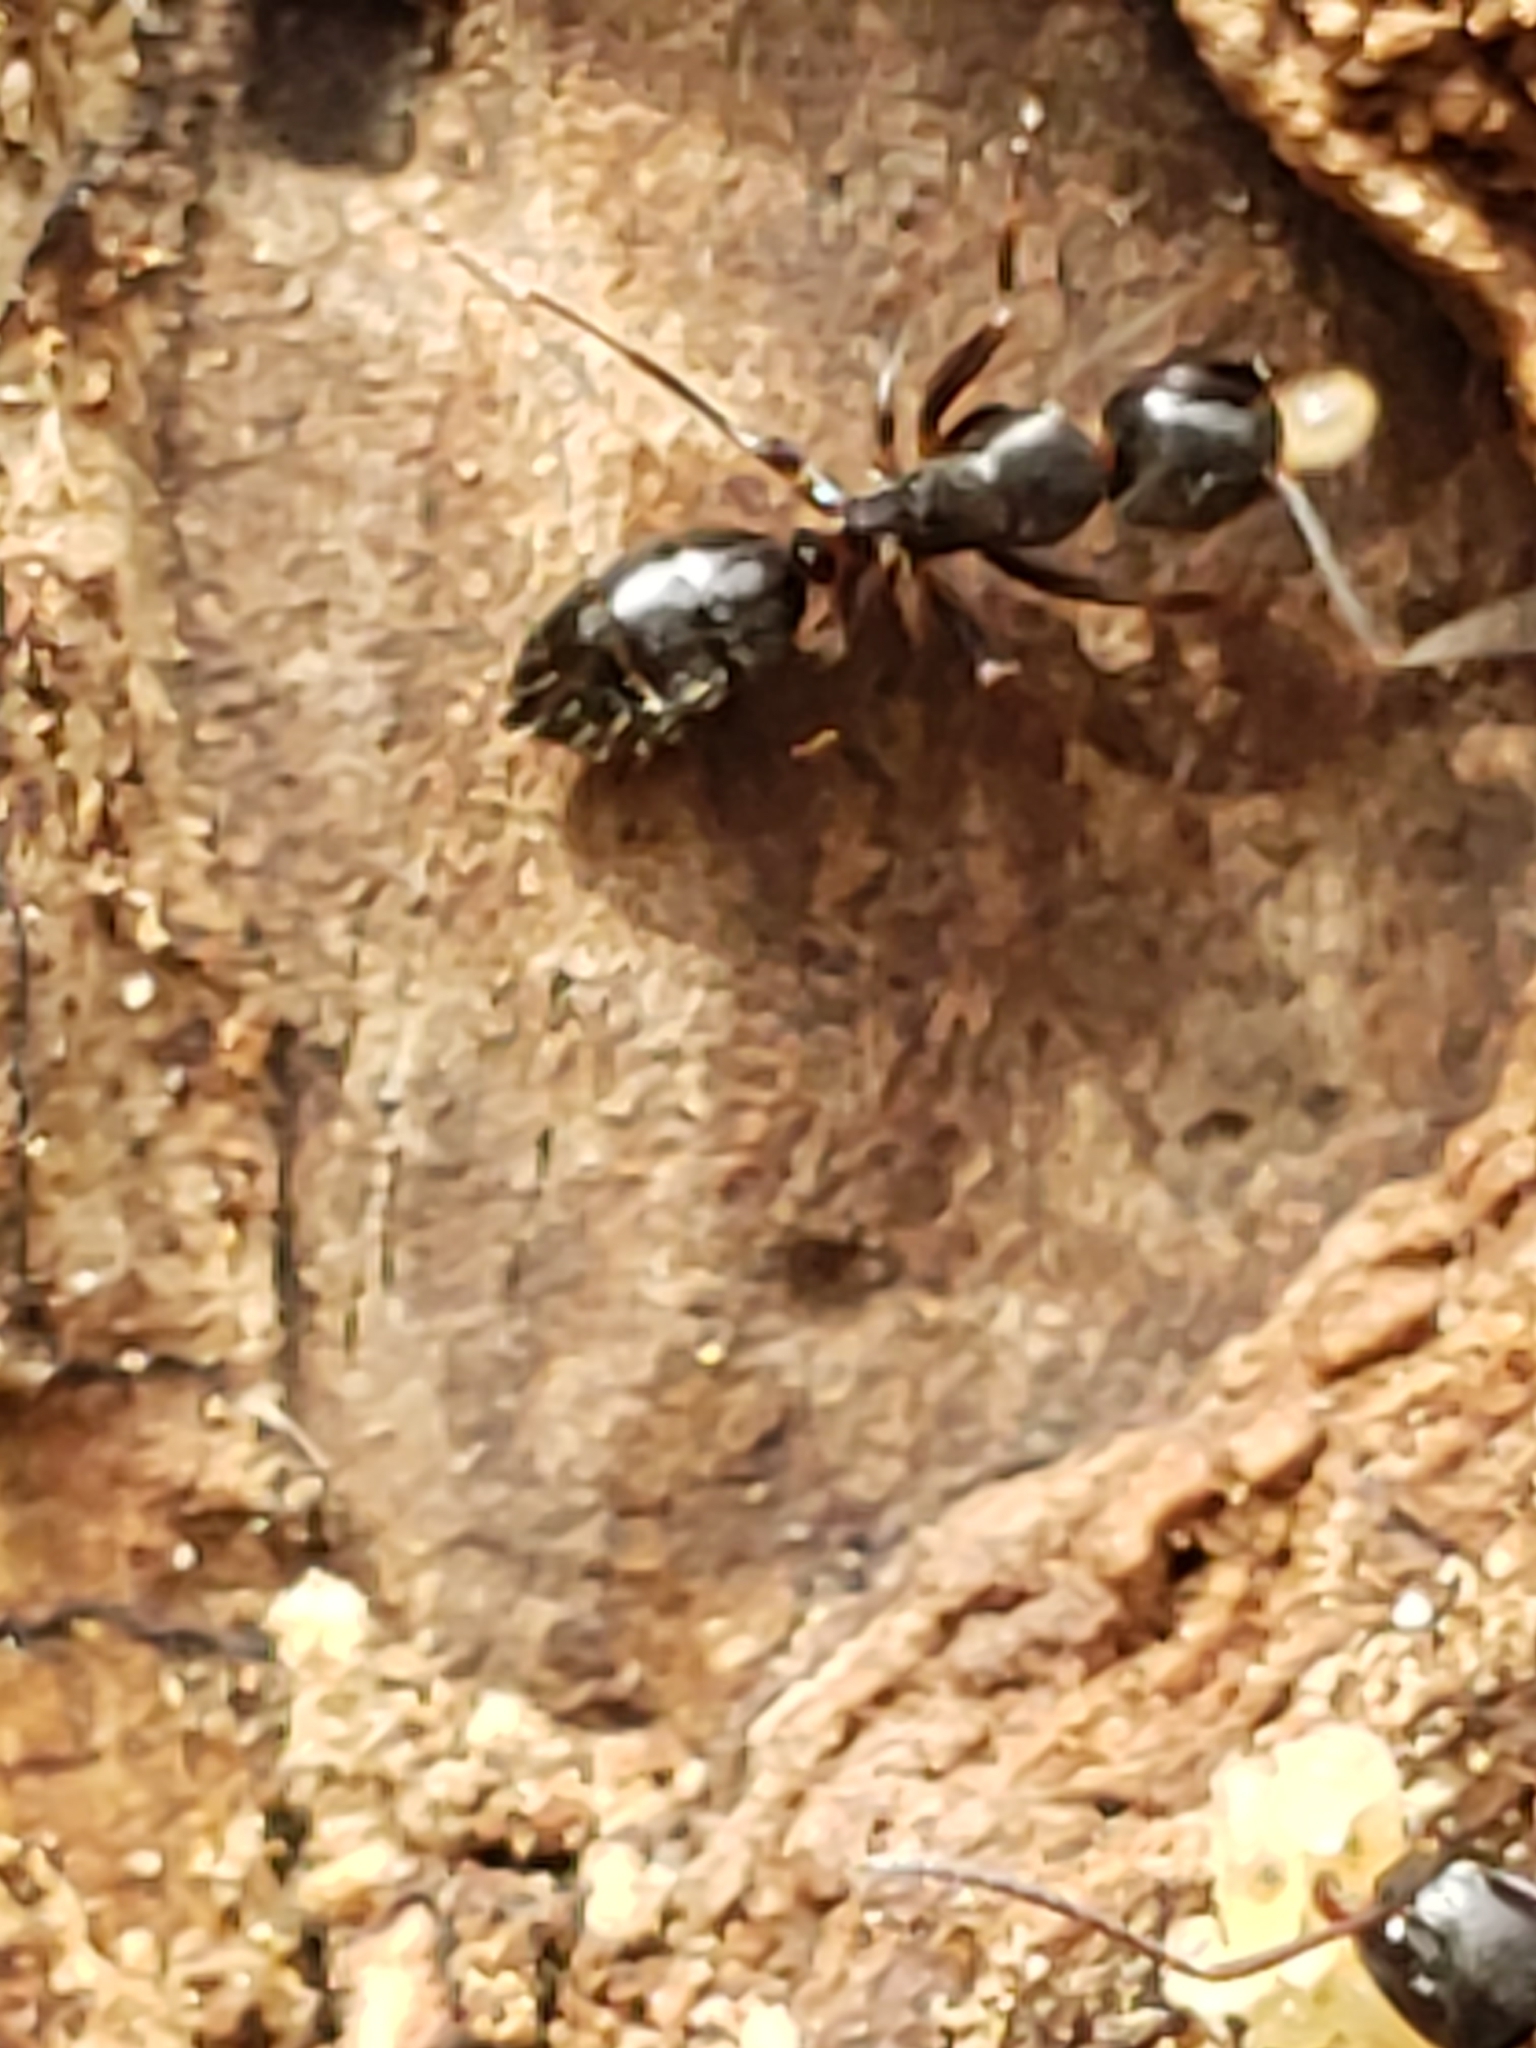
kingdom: Animalia
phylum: Arthropoda
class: Insecta
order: Hymenoptera
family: Formicidae
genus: Camponotus
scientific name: Camponotus nearcticus
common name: Smaller carpenter ant
